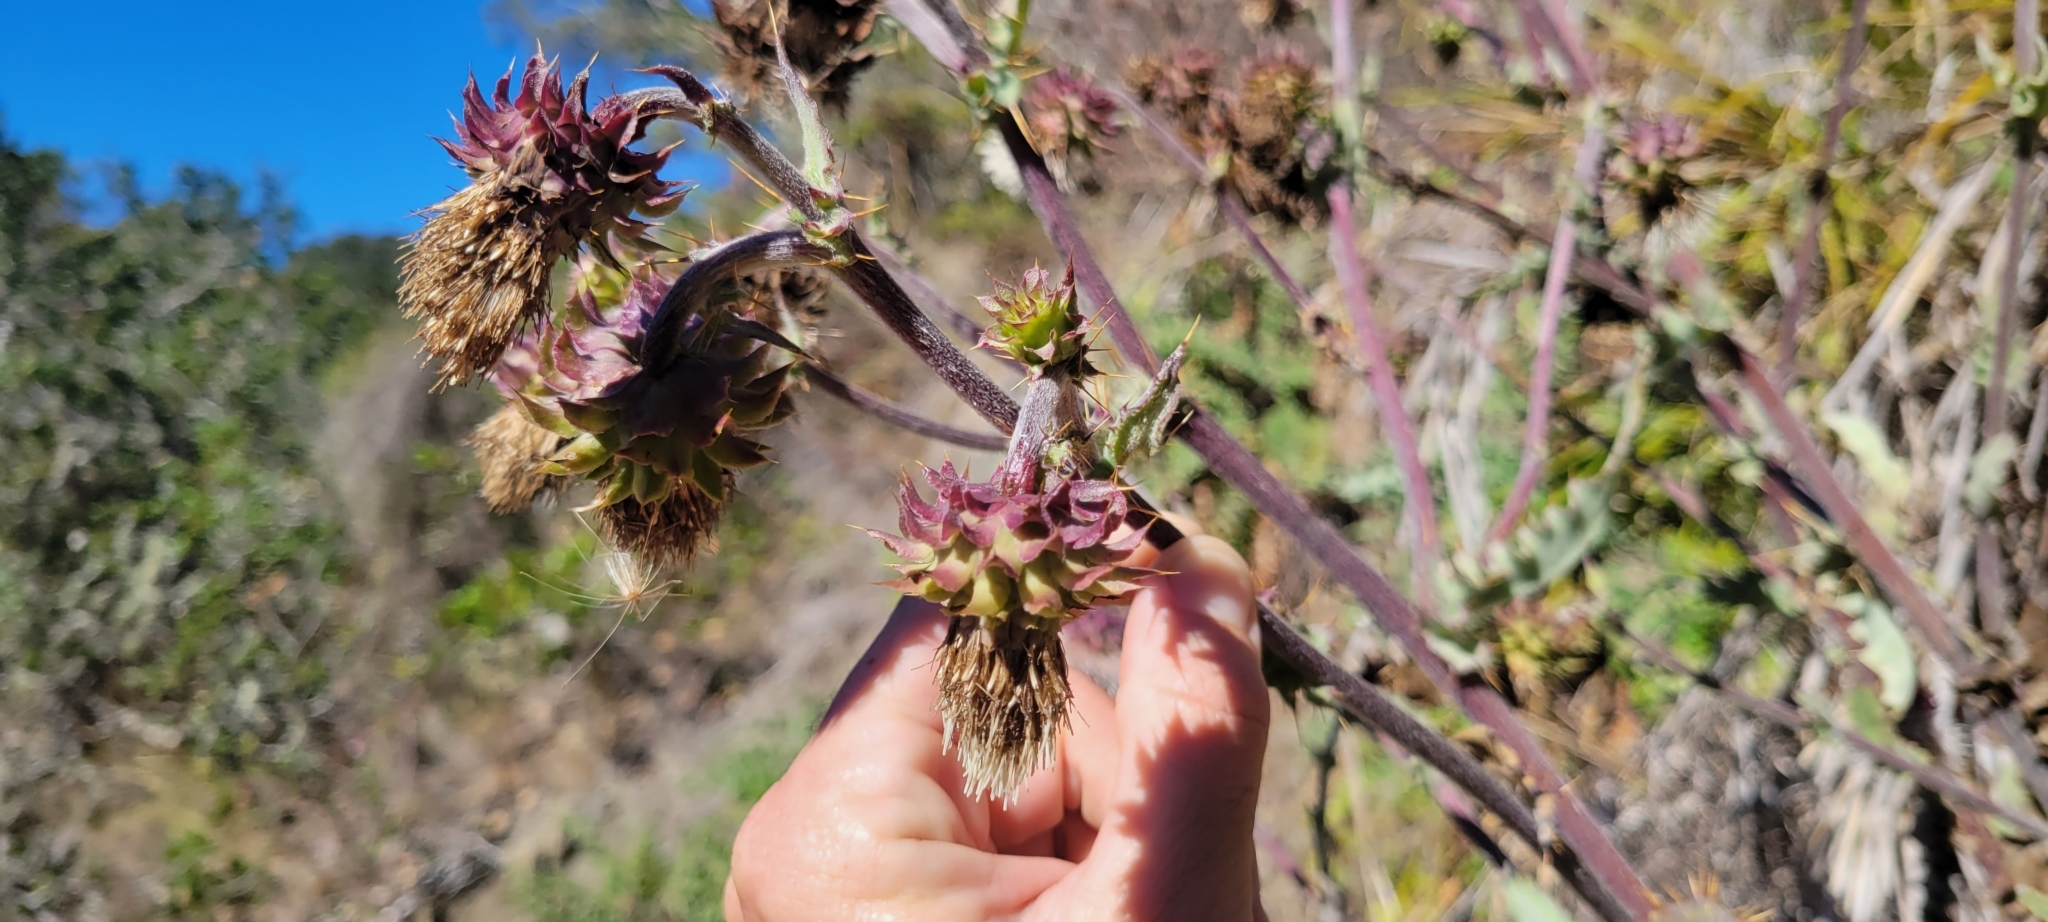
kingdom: Plantae
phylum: Tracheophyta
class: Magnoliopsida
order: Asterales
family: Asteraceae
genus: Cirsium
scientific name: Cirsium fontinale
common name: Fountain thistle
